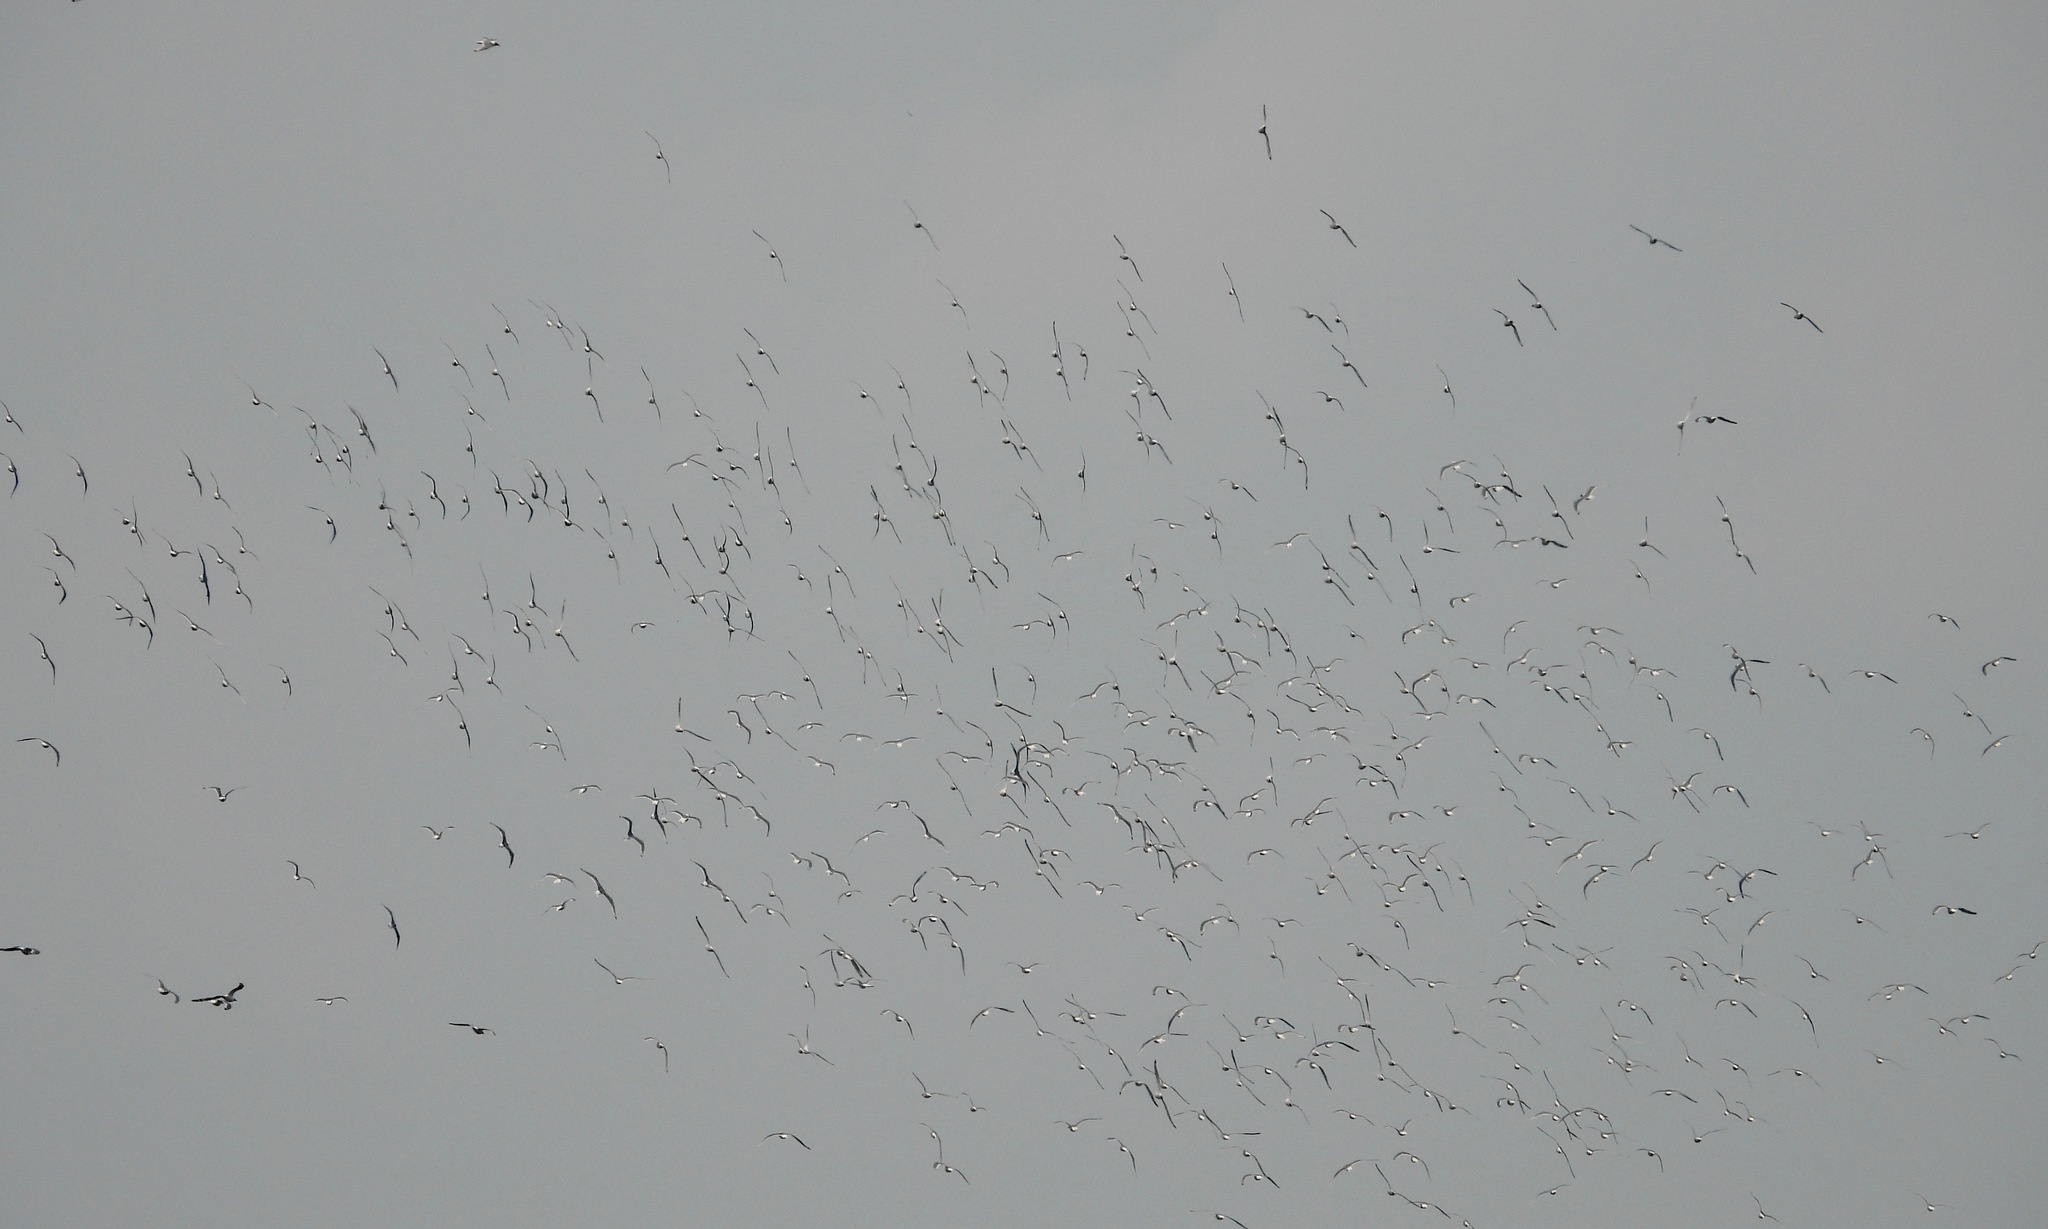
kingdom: Animalia
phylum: Chordata
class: Aves
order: Charadriiformes
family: Laridae
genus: Leucophaeus
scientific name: Leucophaeus pipixcan
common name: Franklin's gull
